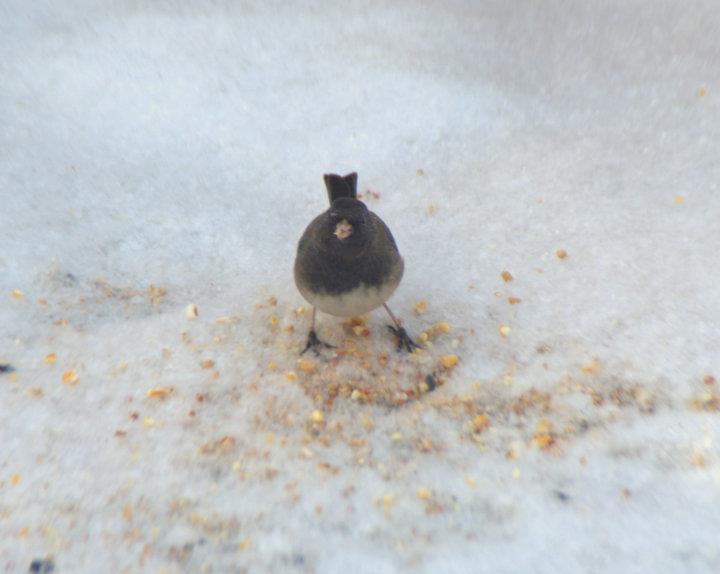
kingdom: Animalia
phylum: Chordata
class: Aves
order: Passeriformes
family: Passerellidae
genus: Junco
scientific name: Junco hyemalis
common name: Dark-eyed junco
